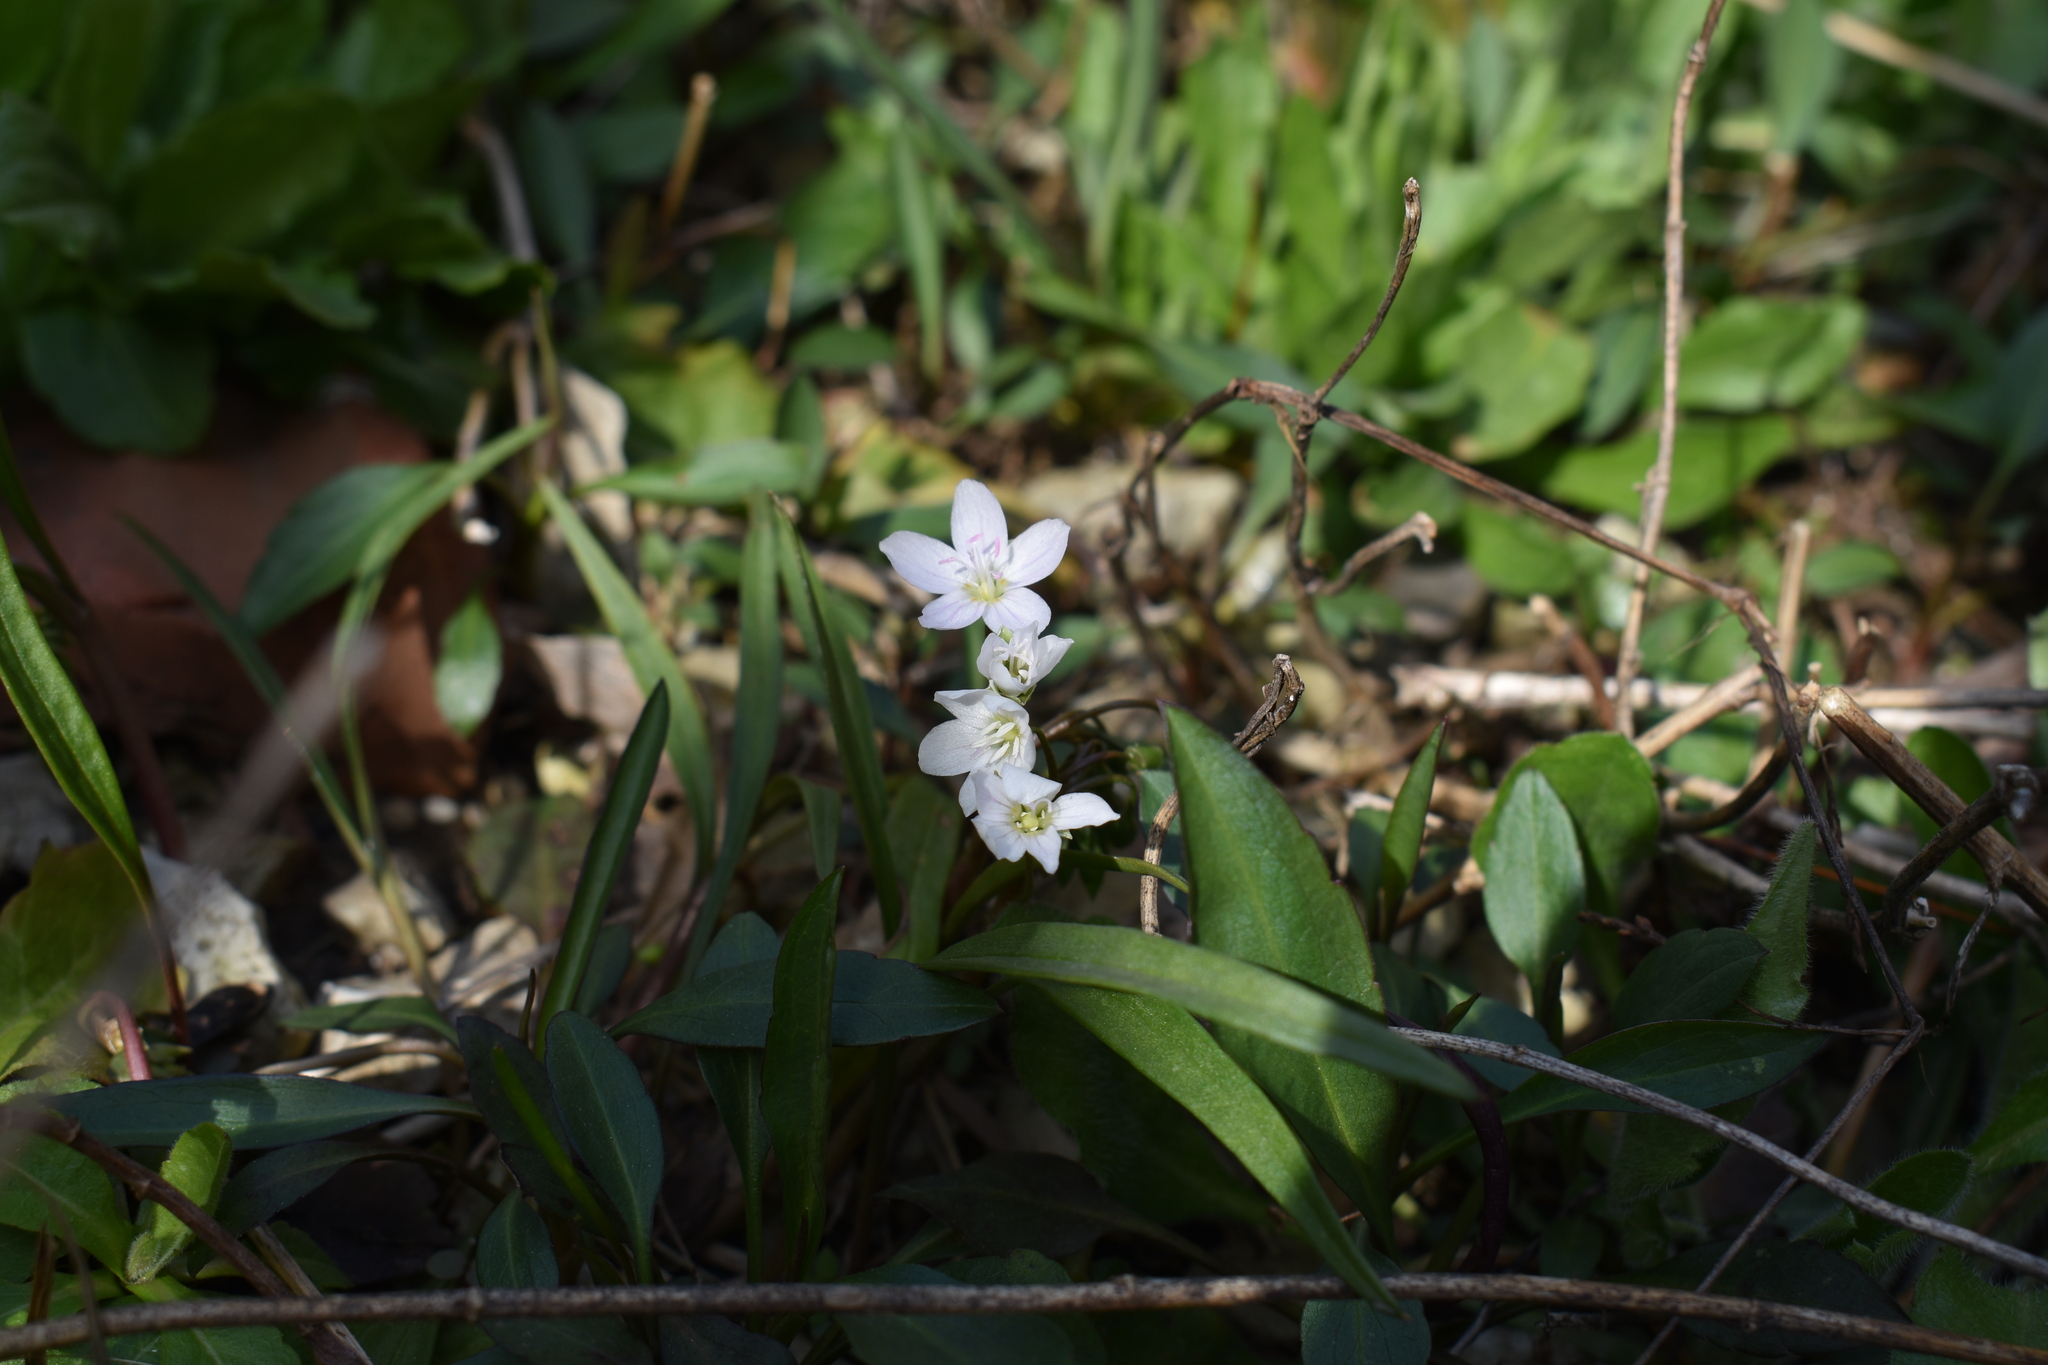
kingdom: Plantae
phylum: Tracheophyta
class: Magnoliopsida
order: Caryophyllales
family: Montiaceae
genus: Claytonia
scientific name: Claytonia virginica
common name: Virginia springbeauty
